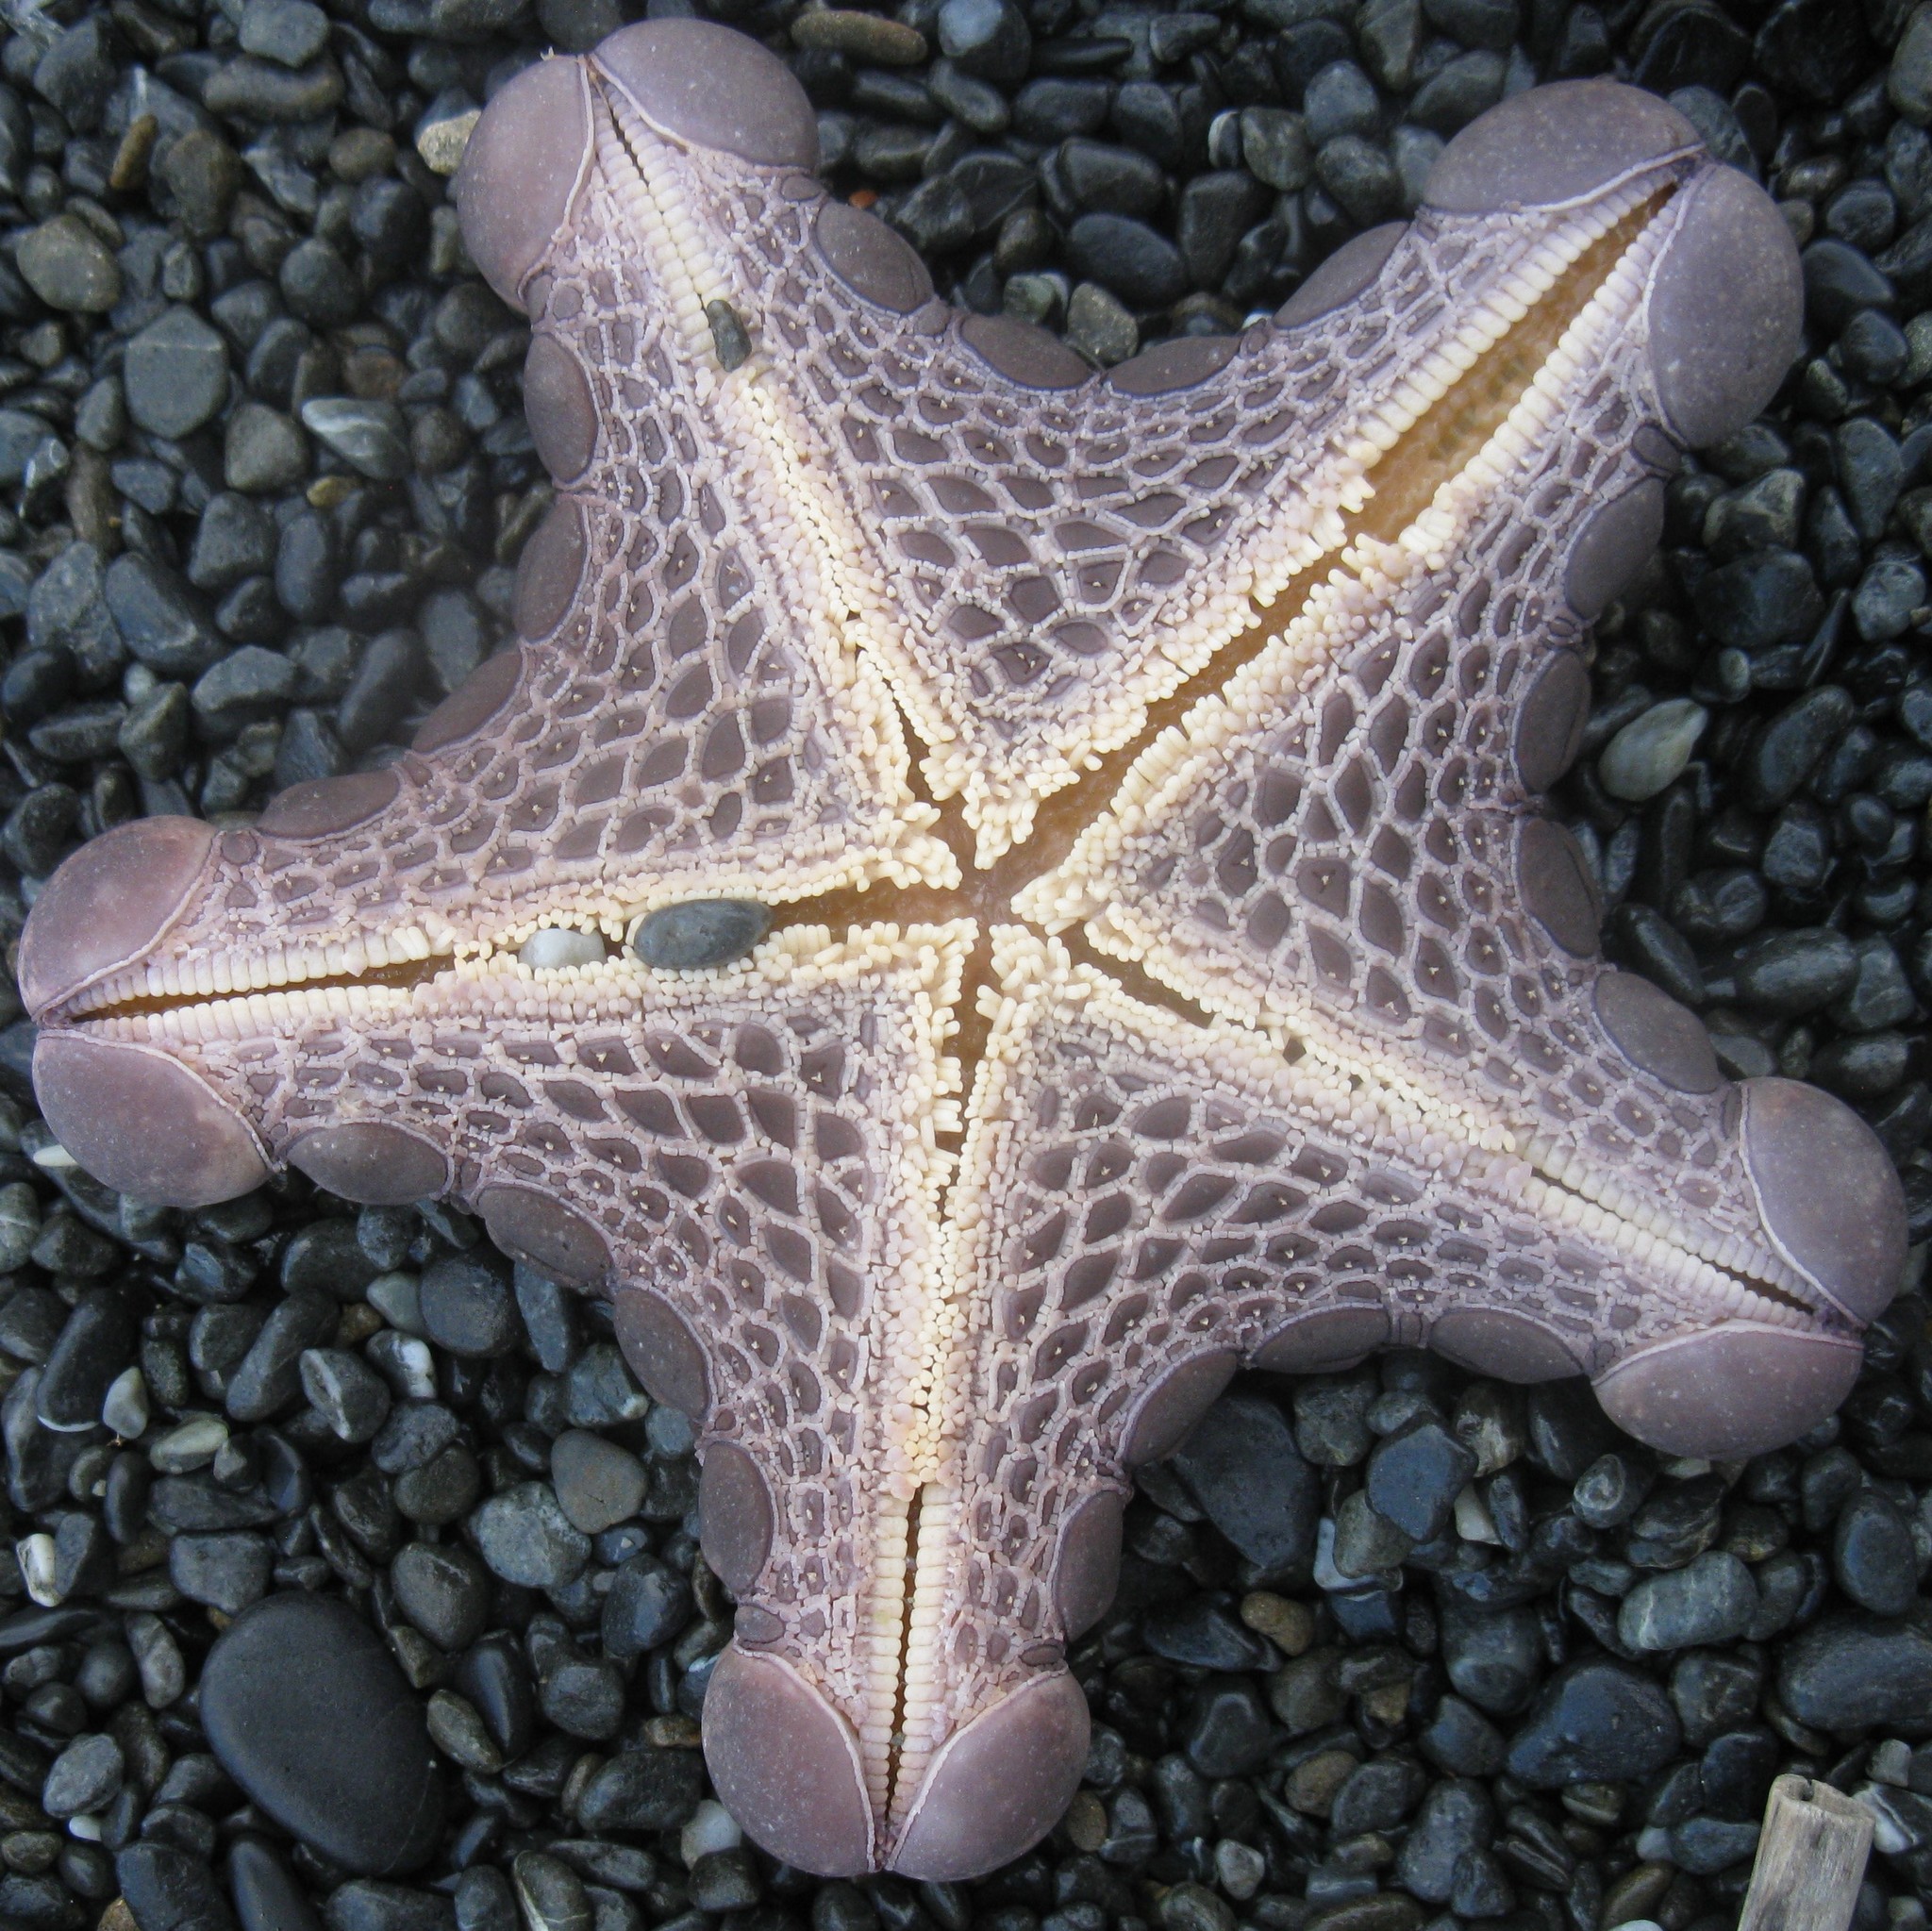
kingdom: Animalia
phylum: Echinodermata
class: Asteroidea
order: Valvatida
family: Goniasteridae
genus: Pentagonaster
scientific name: Pentagonaster pulchellus
